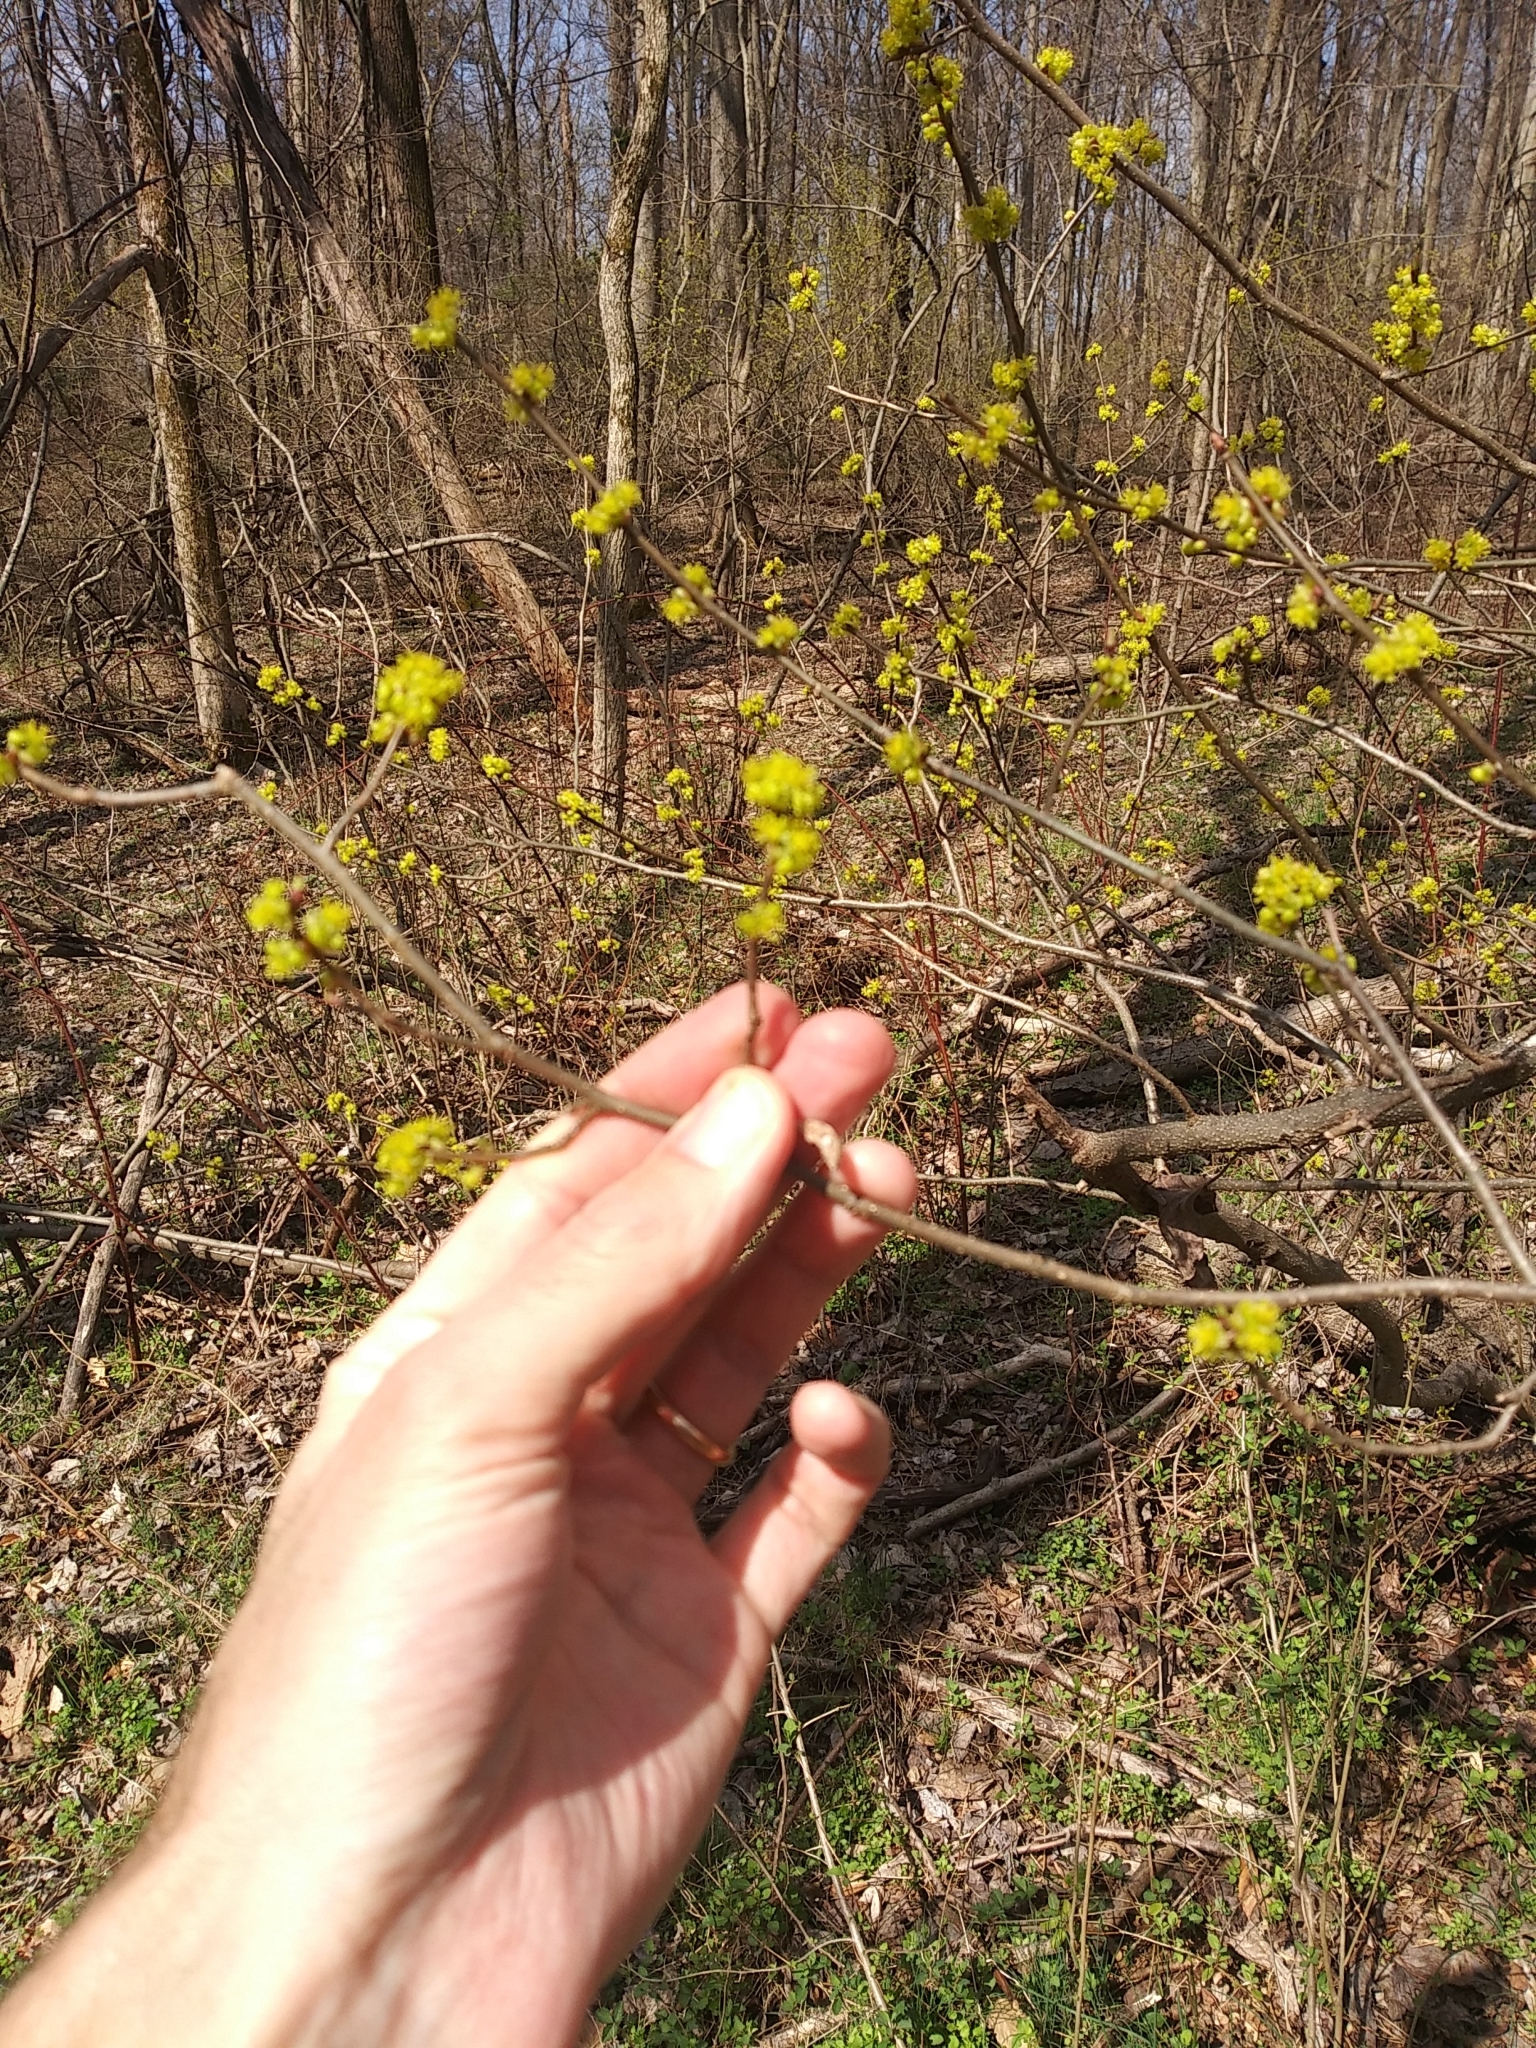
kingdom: Plantae
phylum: Tracheophyta
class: Magnoliopsida
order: Laurales
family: Lauraceae
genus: Lindera
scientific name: Lindera benzoin
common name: Spicebush
